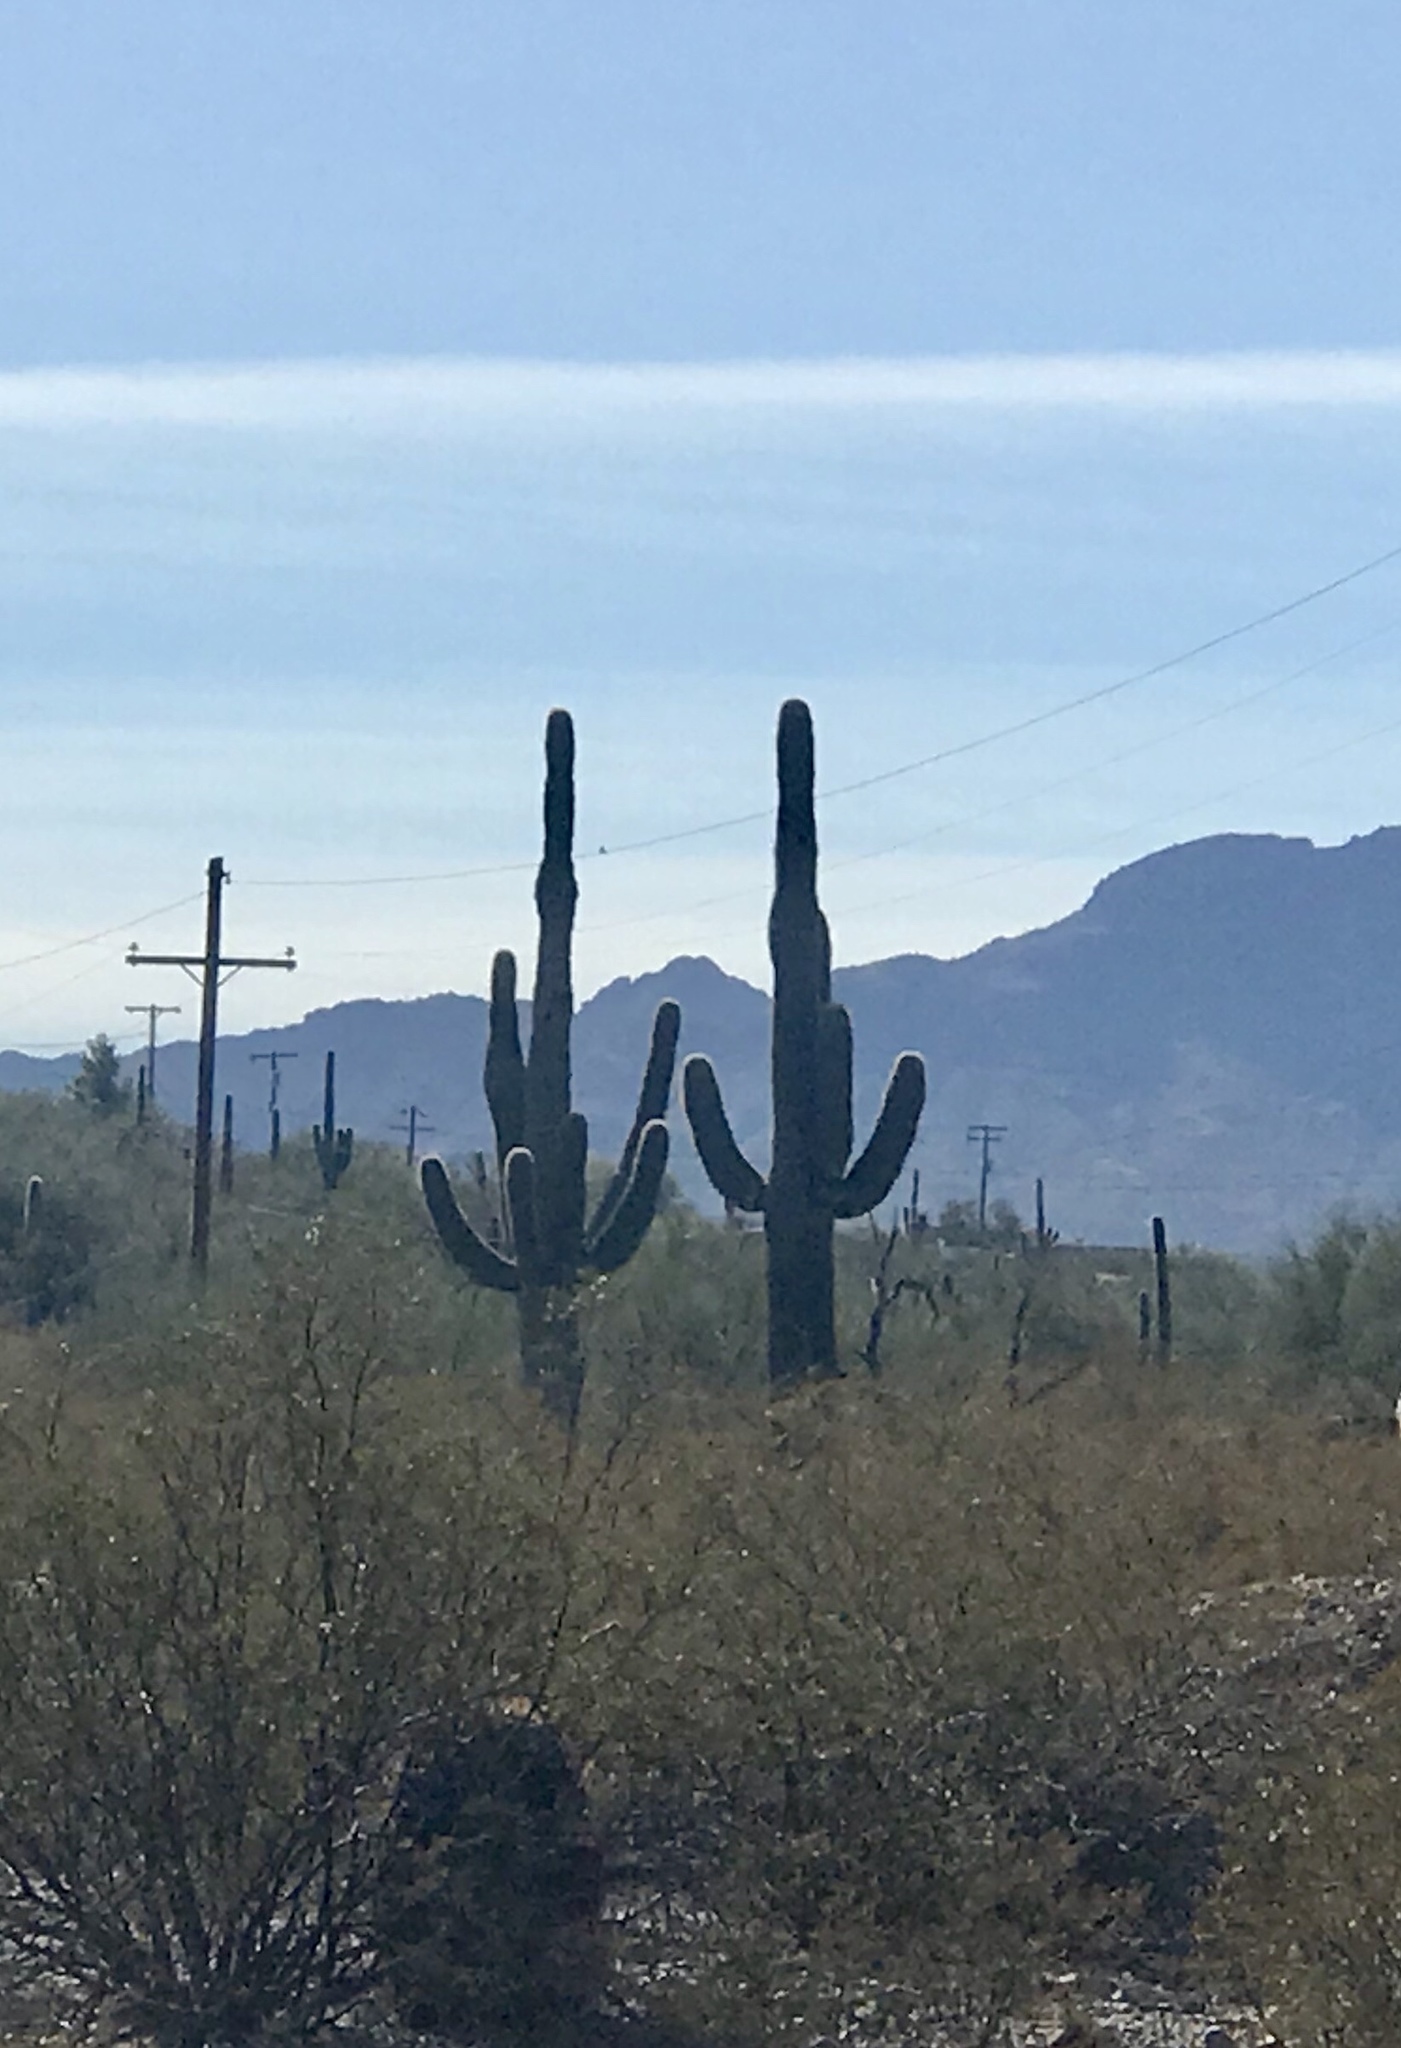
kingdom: Plantae
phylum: Tracheophyta
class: Magnoliopsida
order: Caryophyllales
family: Cactaceae
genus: Carnegiea
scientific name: Carnegiea gigantea
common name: Saguaro
